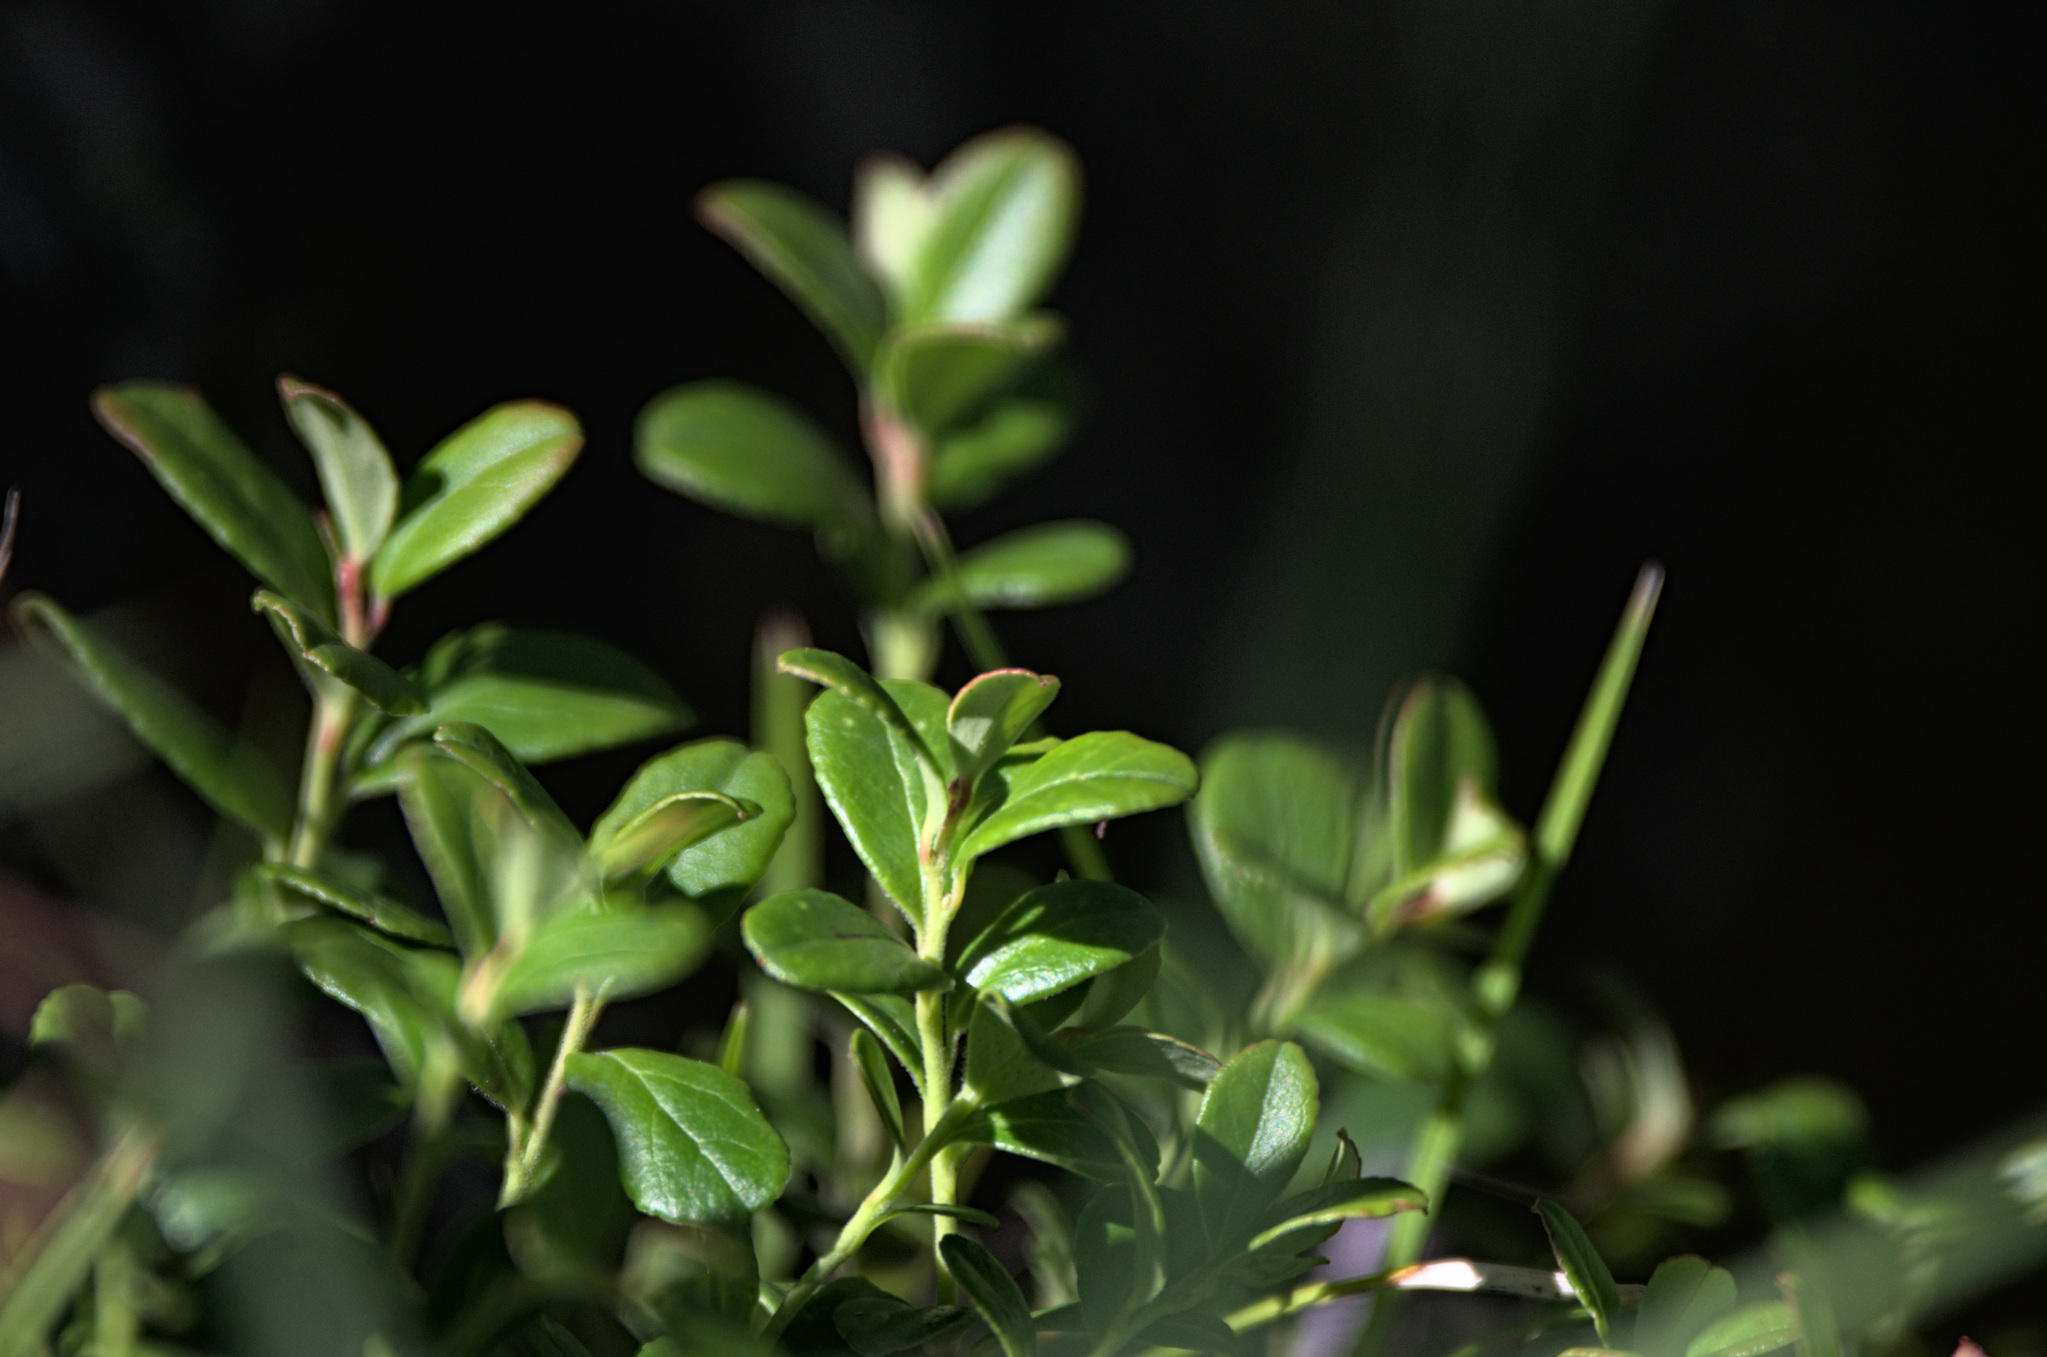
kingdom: Plantae
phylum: Tracheophyta
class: Magnoliopsida
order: Ericales
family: Ericaceae
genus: Vaccinium
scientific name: Vaccinium vitis-idaea
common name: Cowberry
